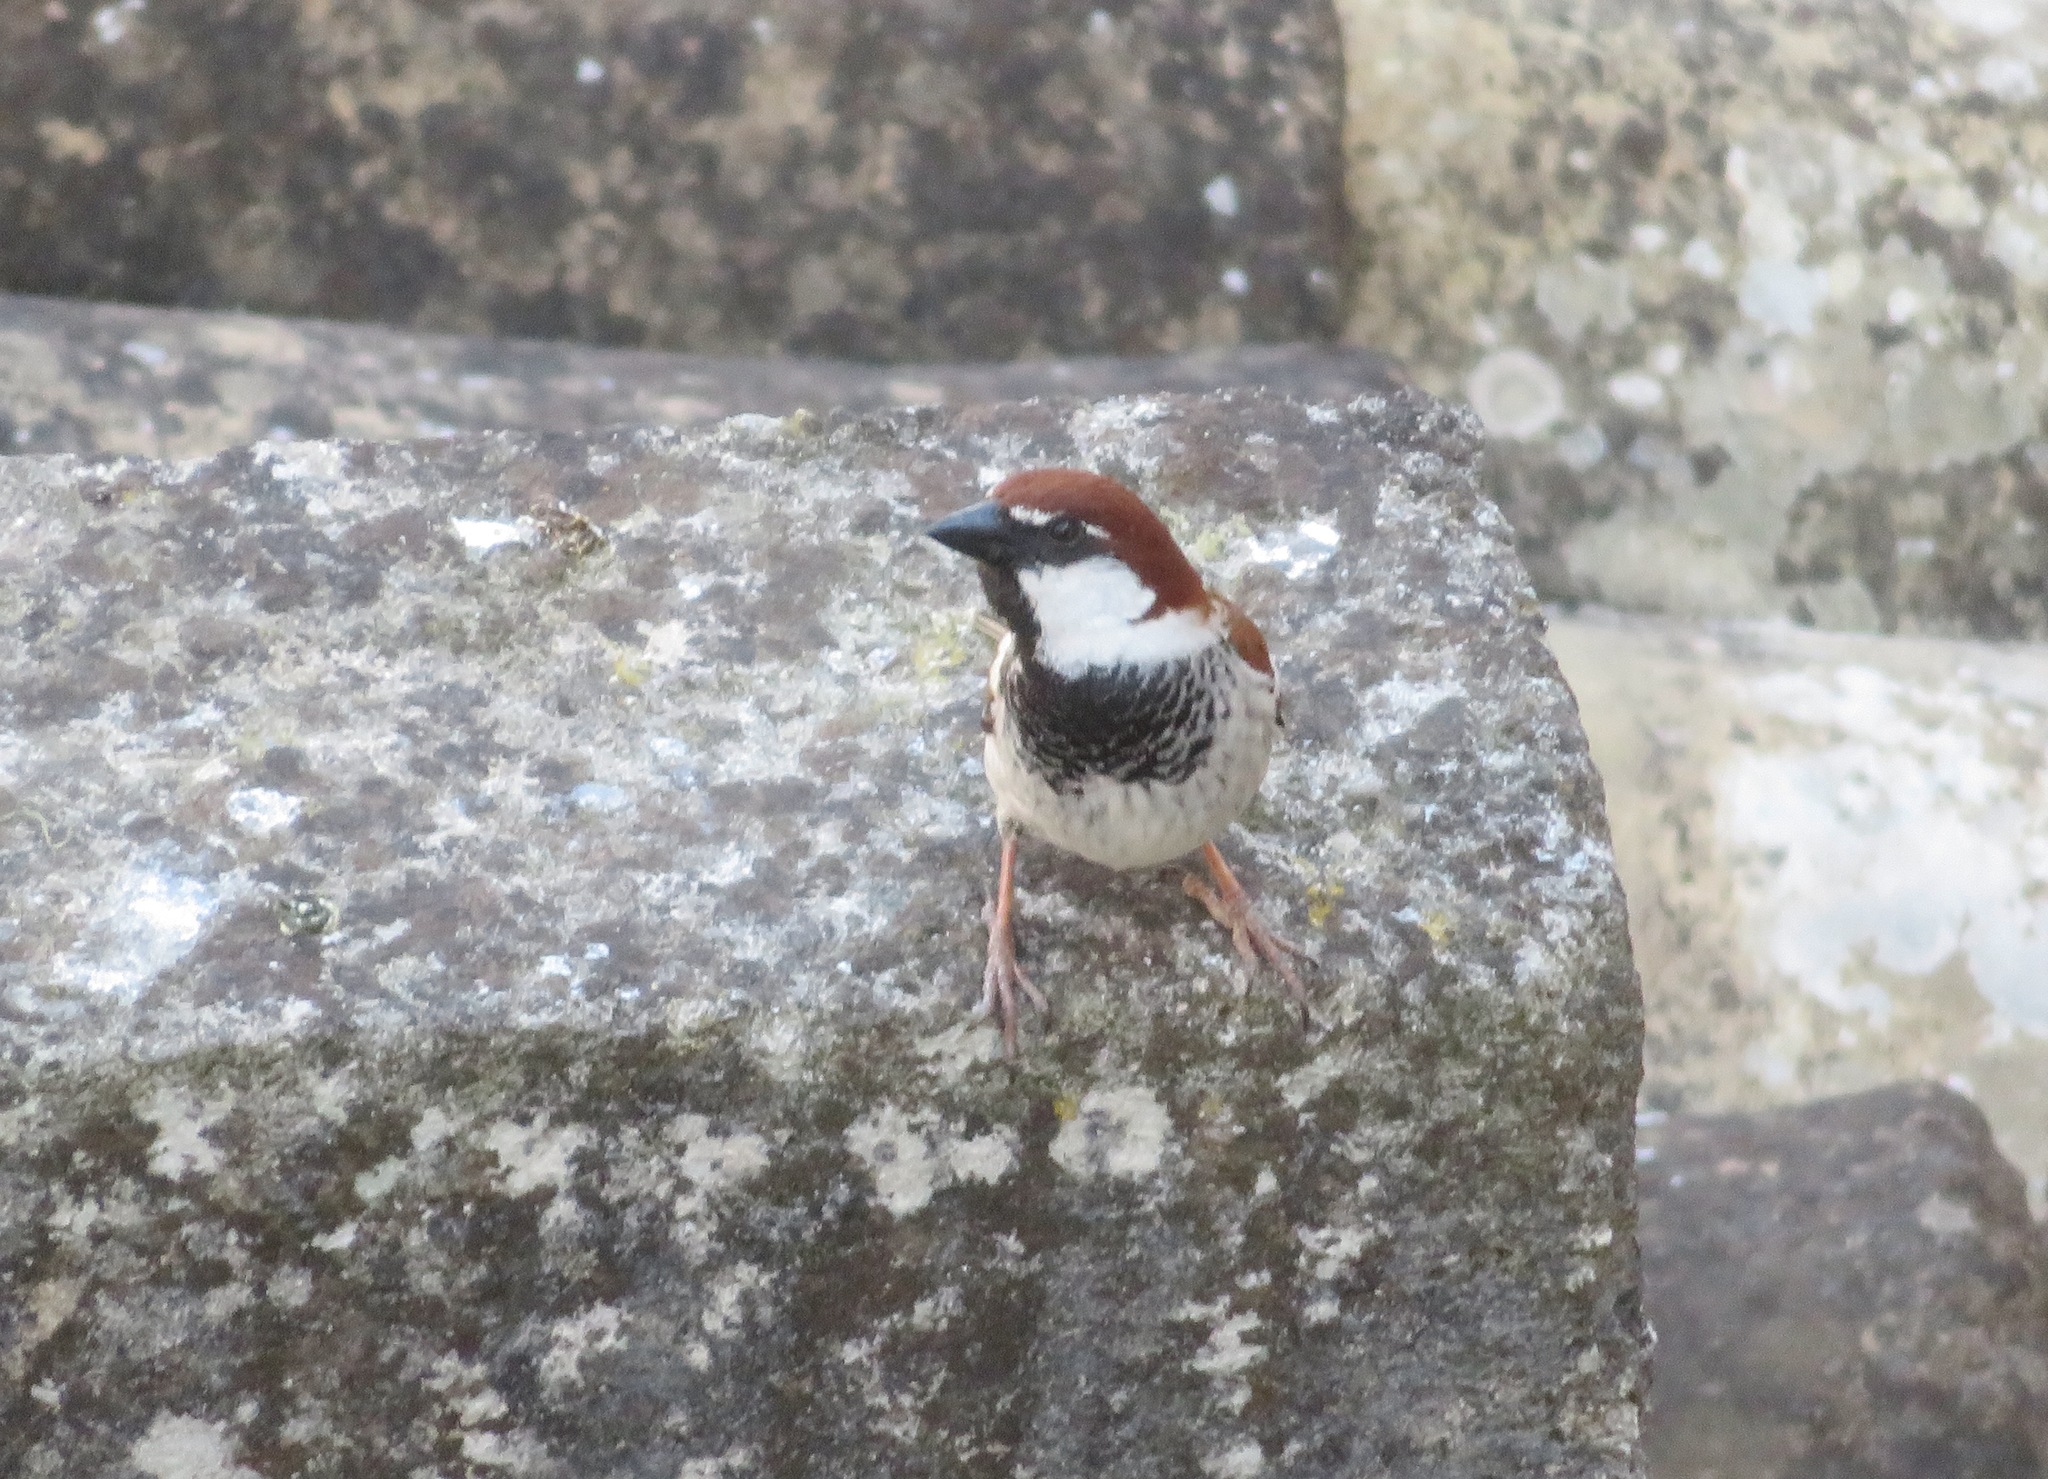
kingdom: Animalia
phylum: Chordata
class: Aves
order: Passeriformes
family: Passeridae
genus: Passer
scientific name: Passer italiae
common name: Italian sparrow
